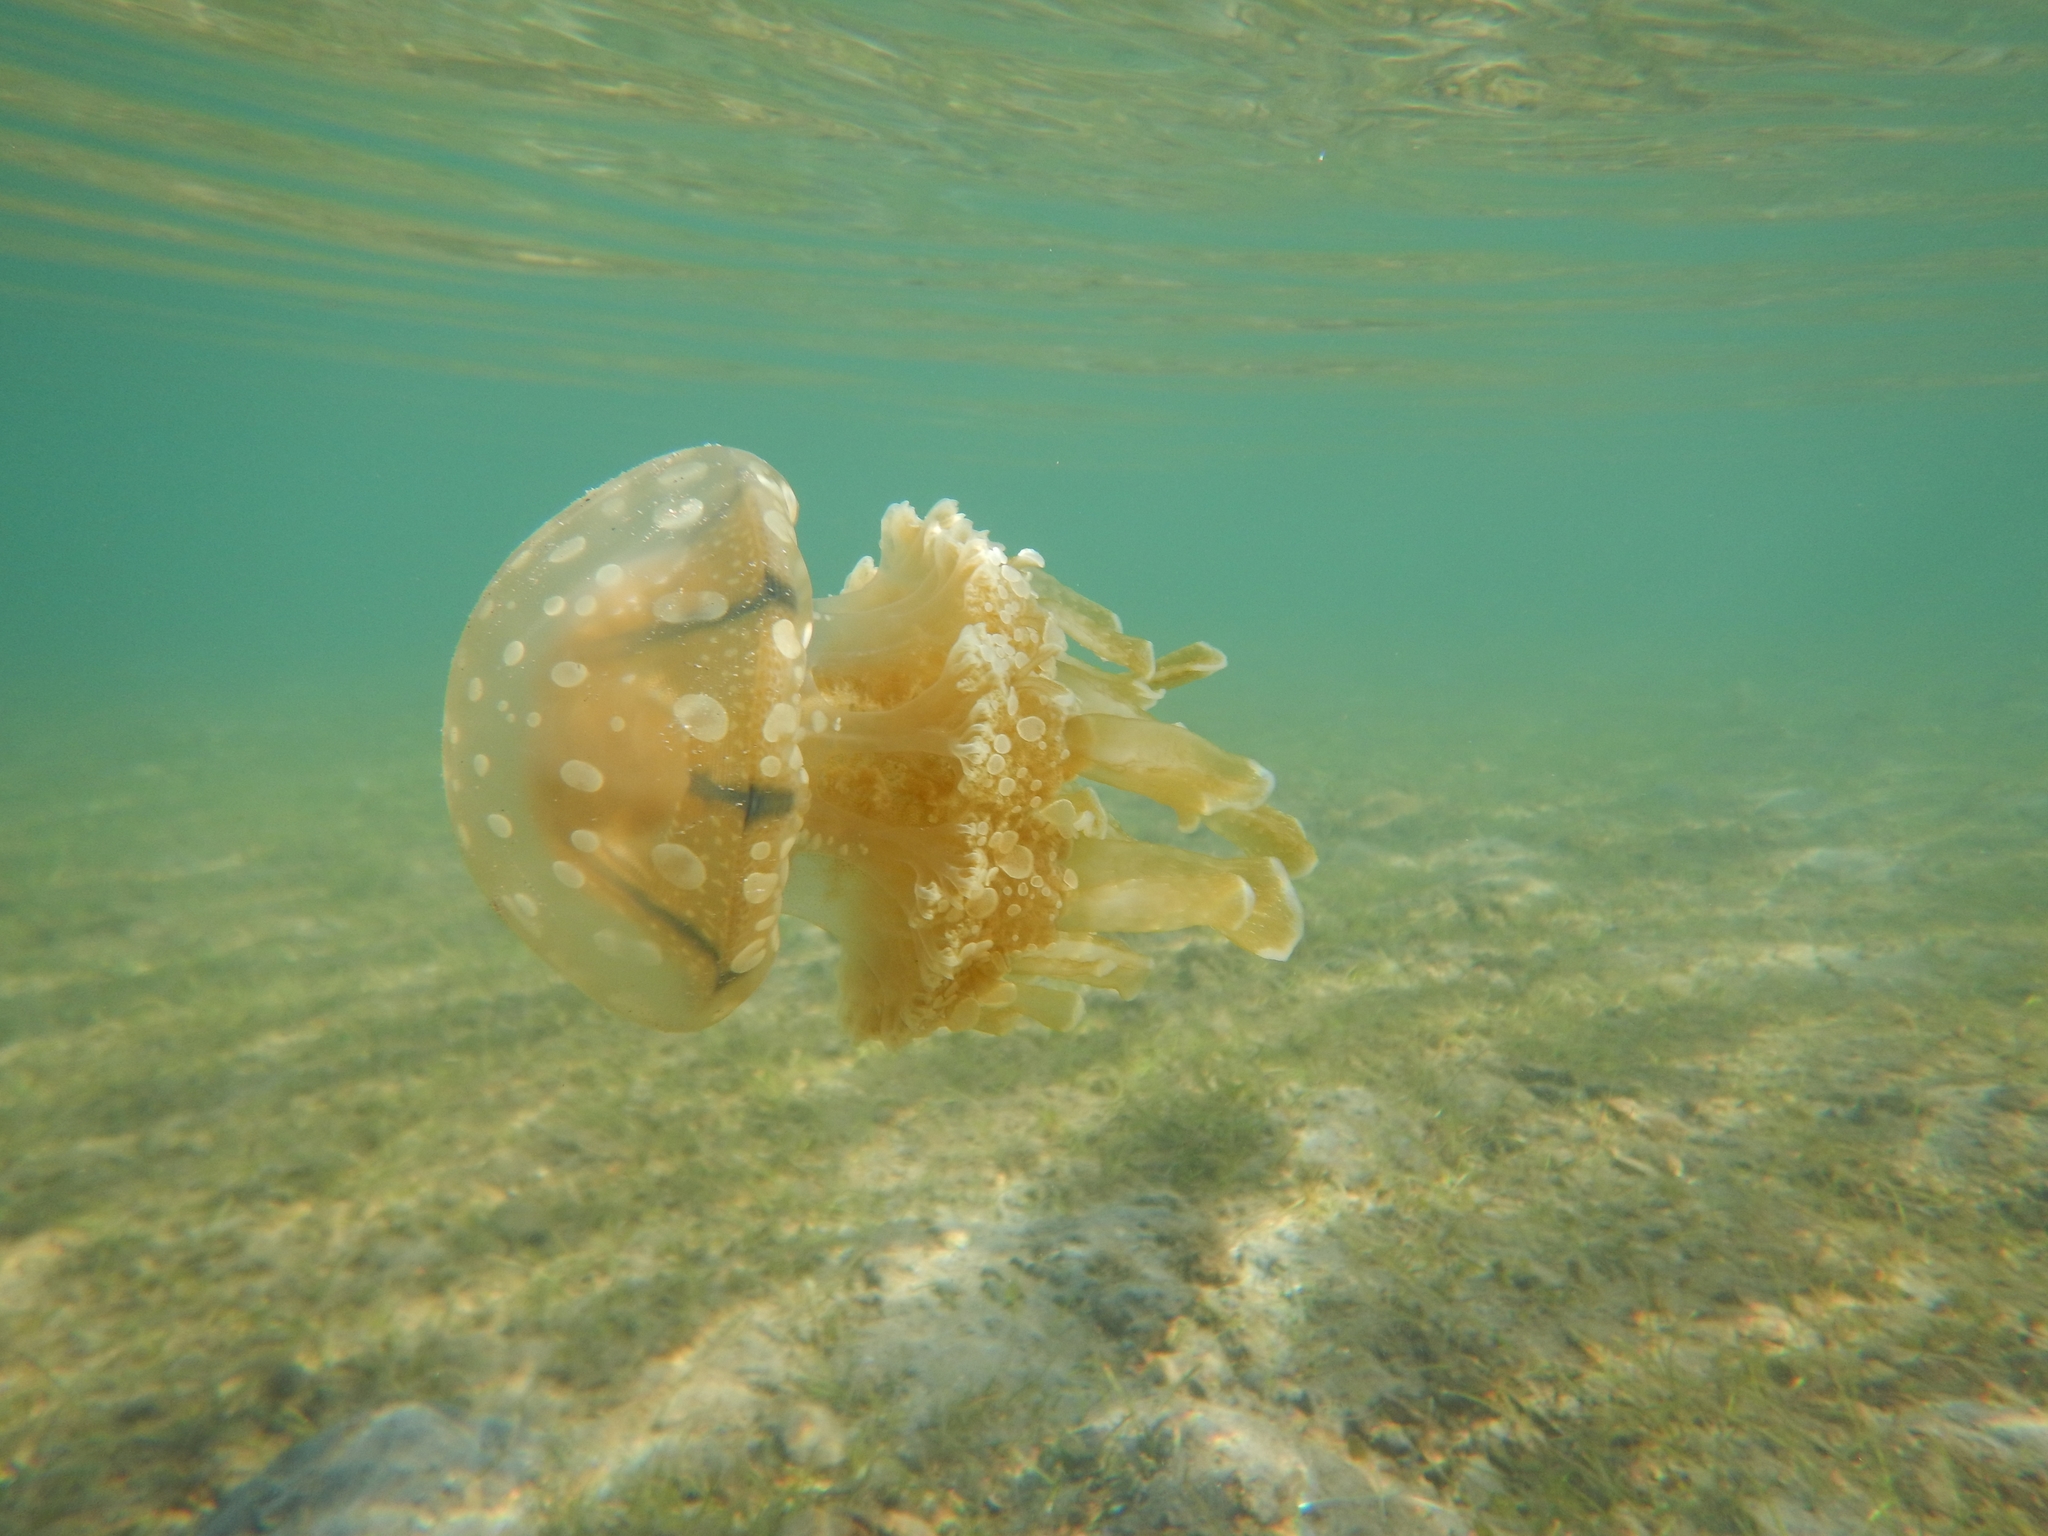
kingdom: Animalia
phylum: Cnidaria
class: Scyphozoa
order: Rhizostomeae
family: Mastigiidae
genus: Mastigias
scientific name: Mastigias papua
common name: Papuan jellyfish
